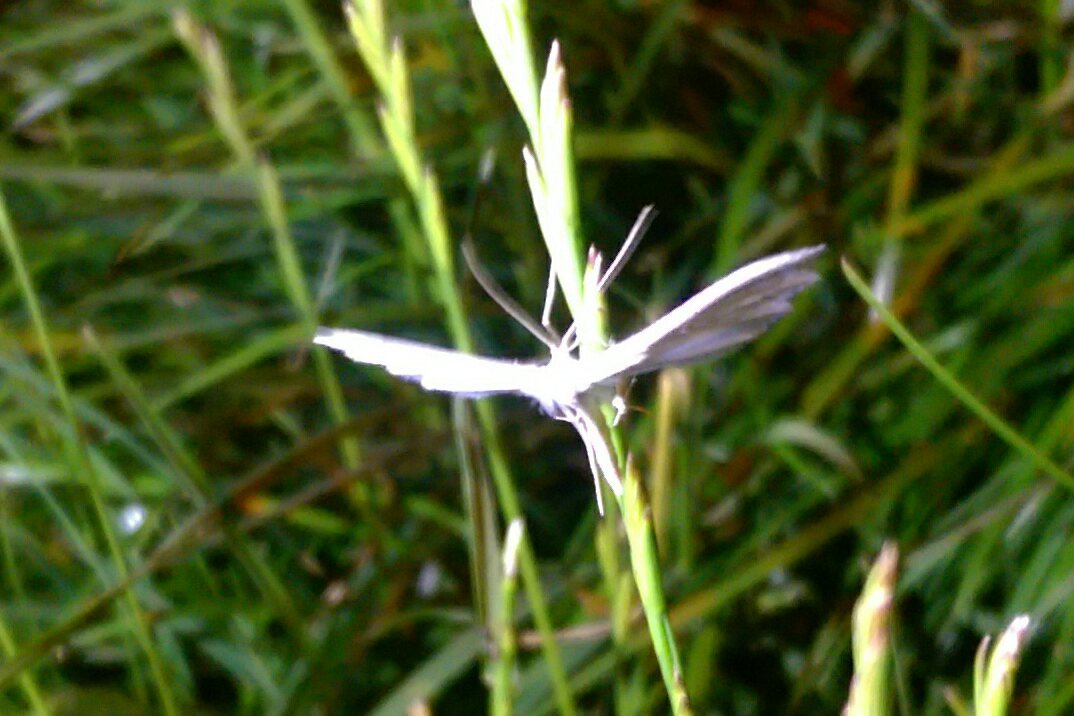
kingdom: Animalia
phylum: Arthropoda
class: Insecta
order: Lepidoptera
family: Pterophoridae
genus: Pterophorus
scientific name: Pterophorus pentadactyla
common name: White plume moth
